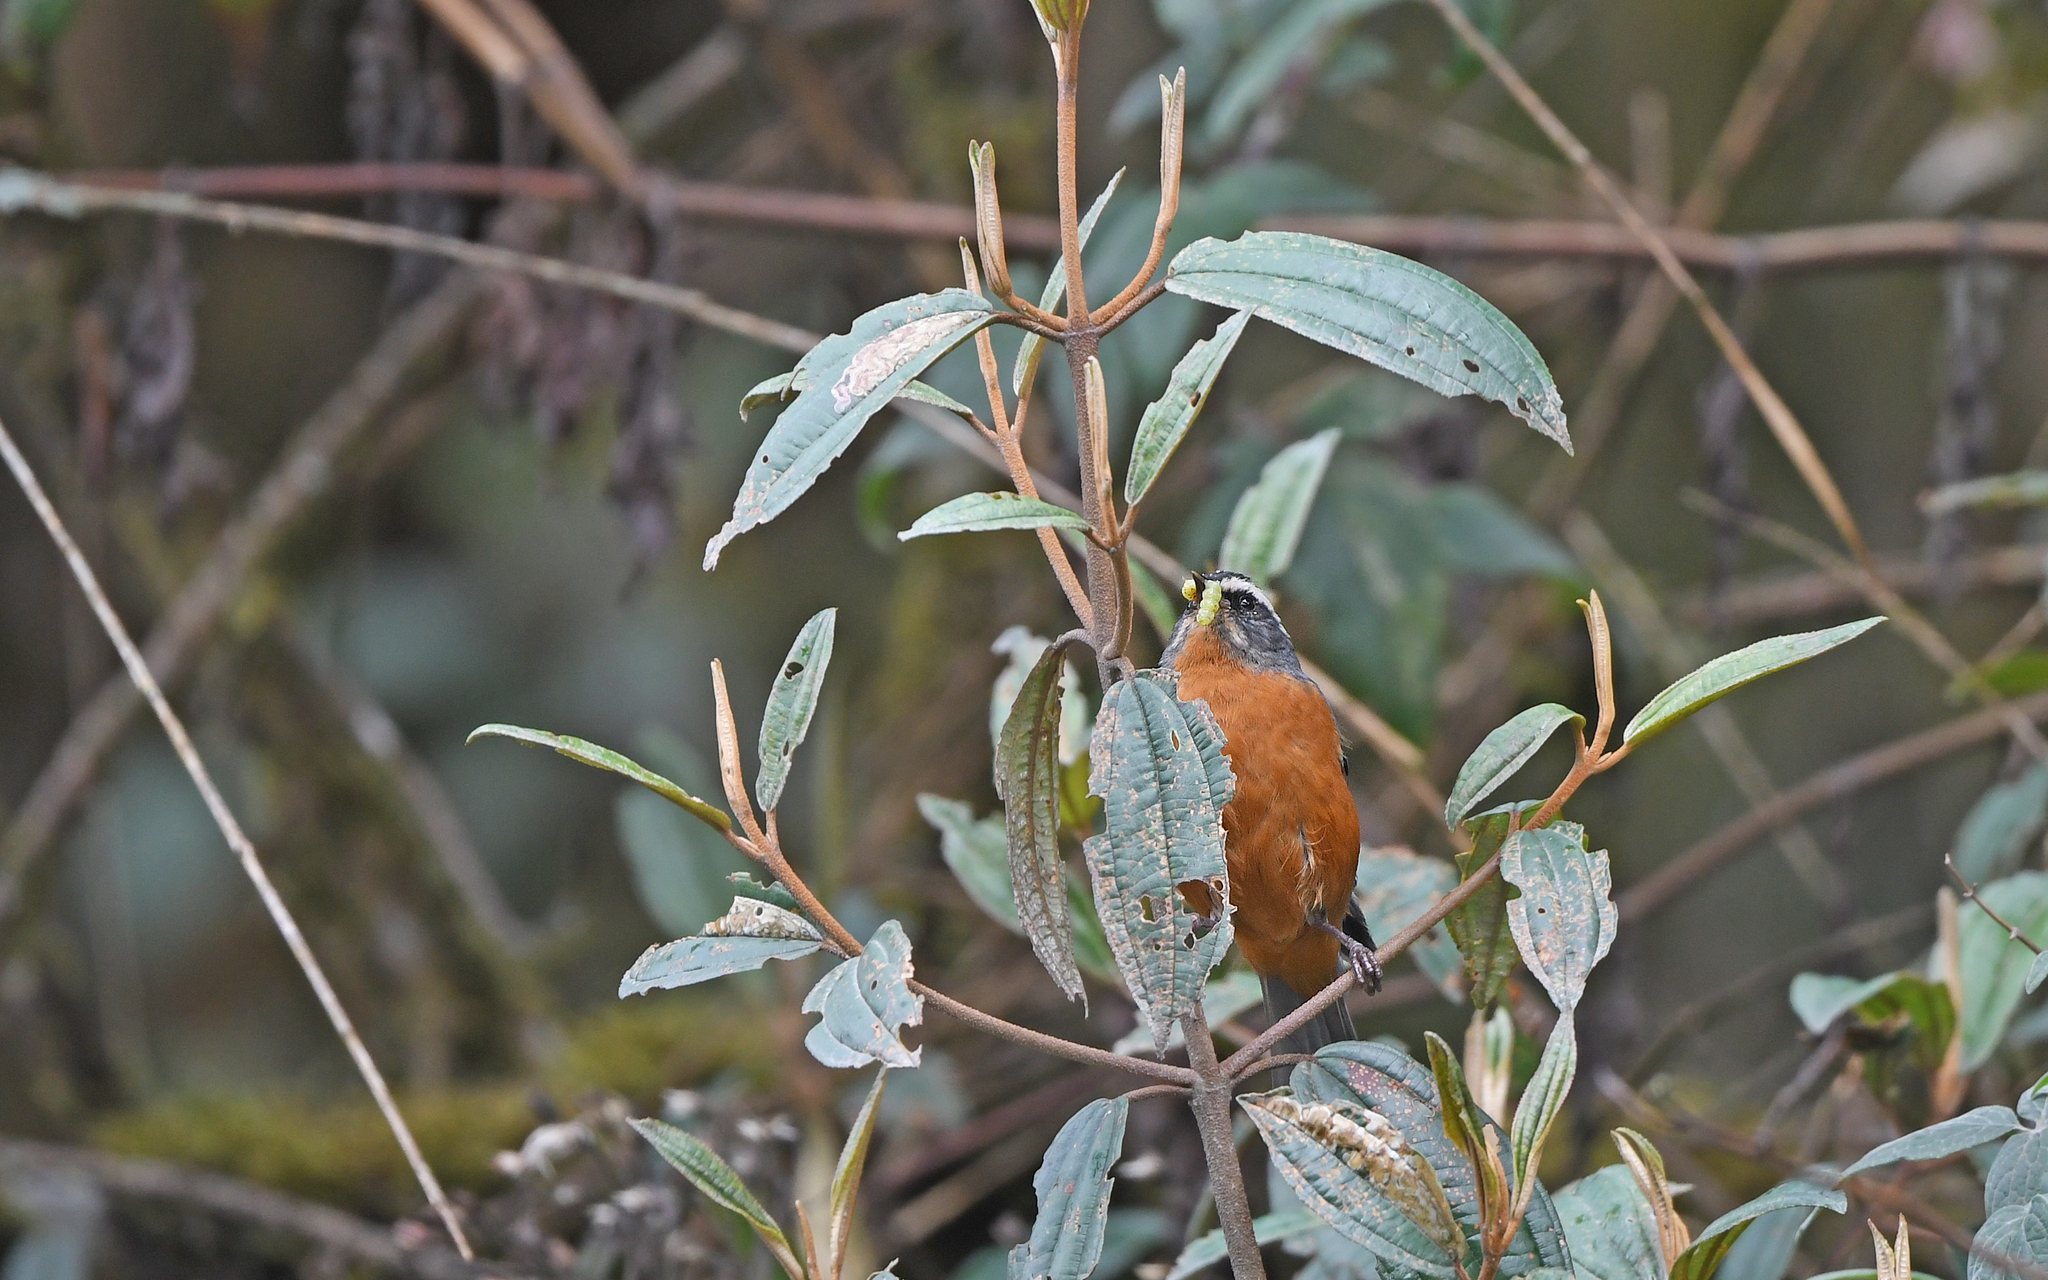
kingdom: Animalia
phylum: Chordata
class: Aves
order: Passeriformes
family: Thraupidae
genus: Conirostrum
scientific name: Conirostrum ferrugineiventre
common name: White-browed conebill
